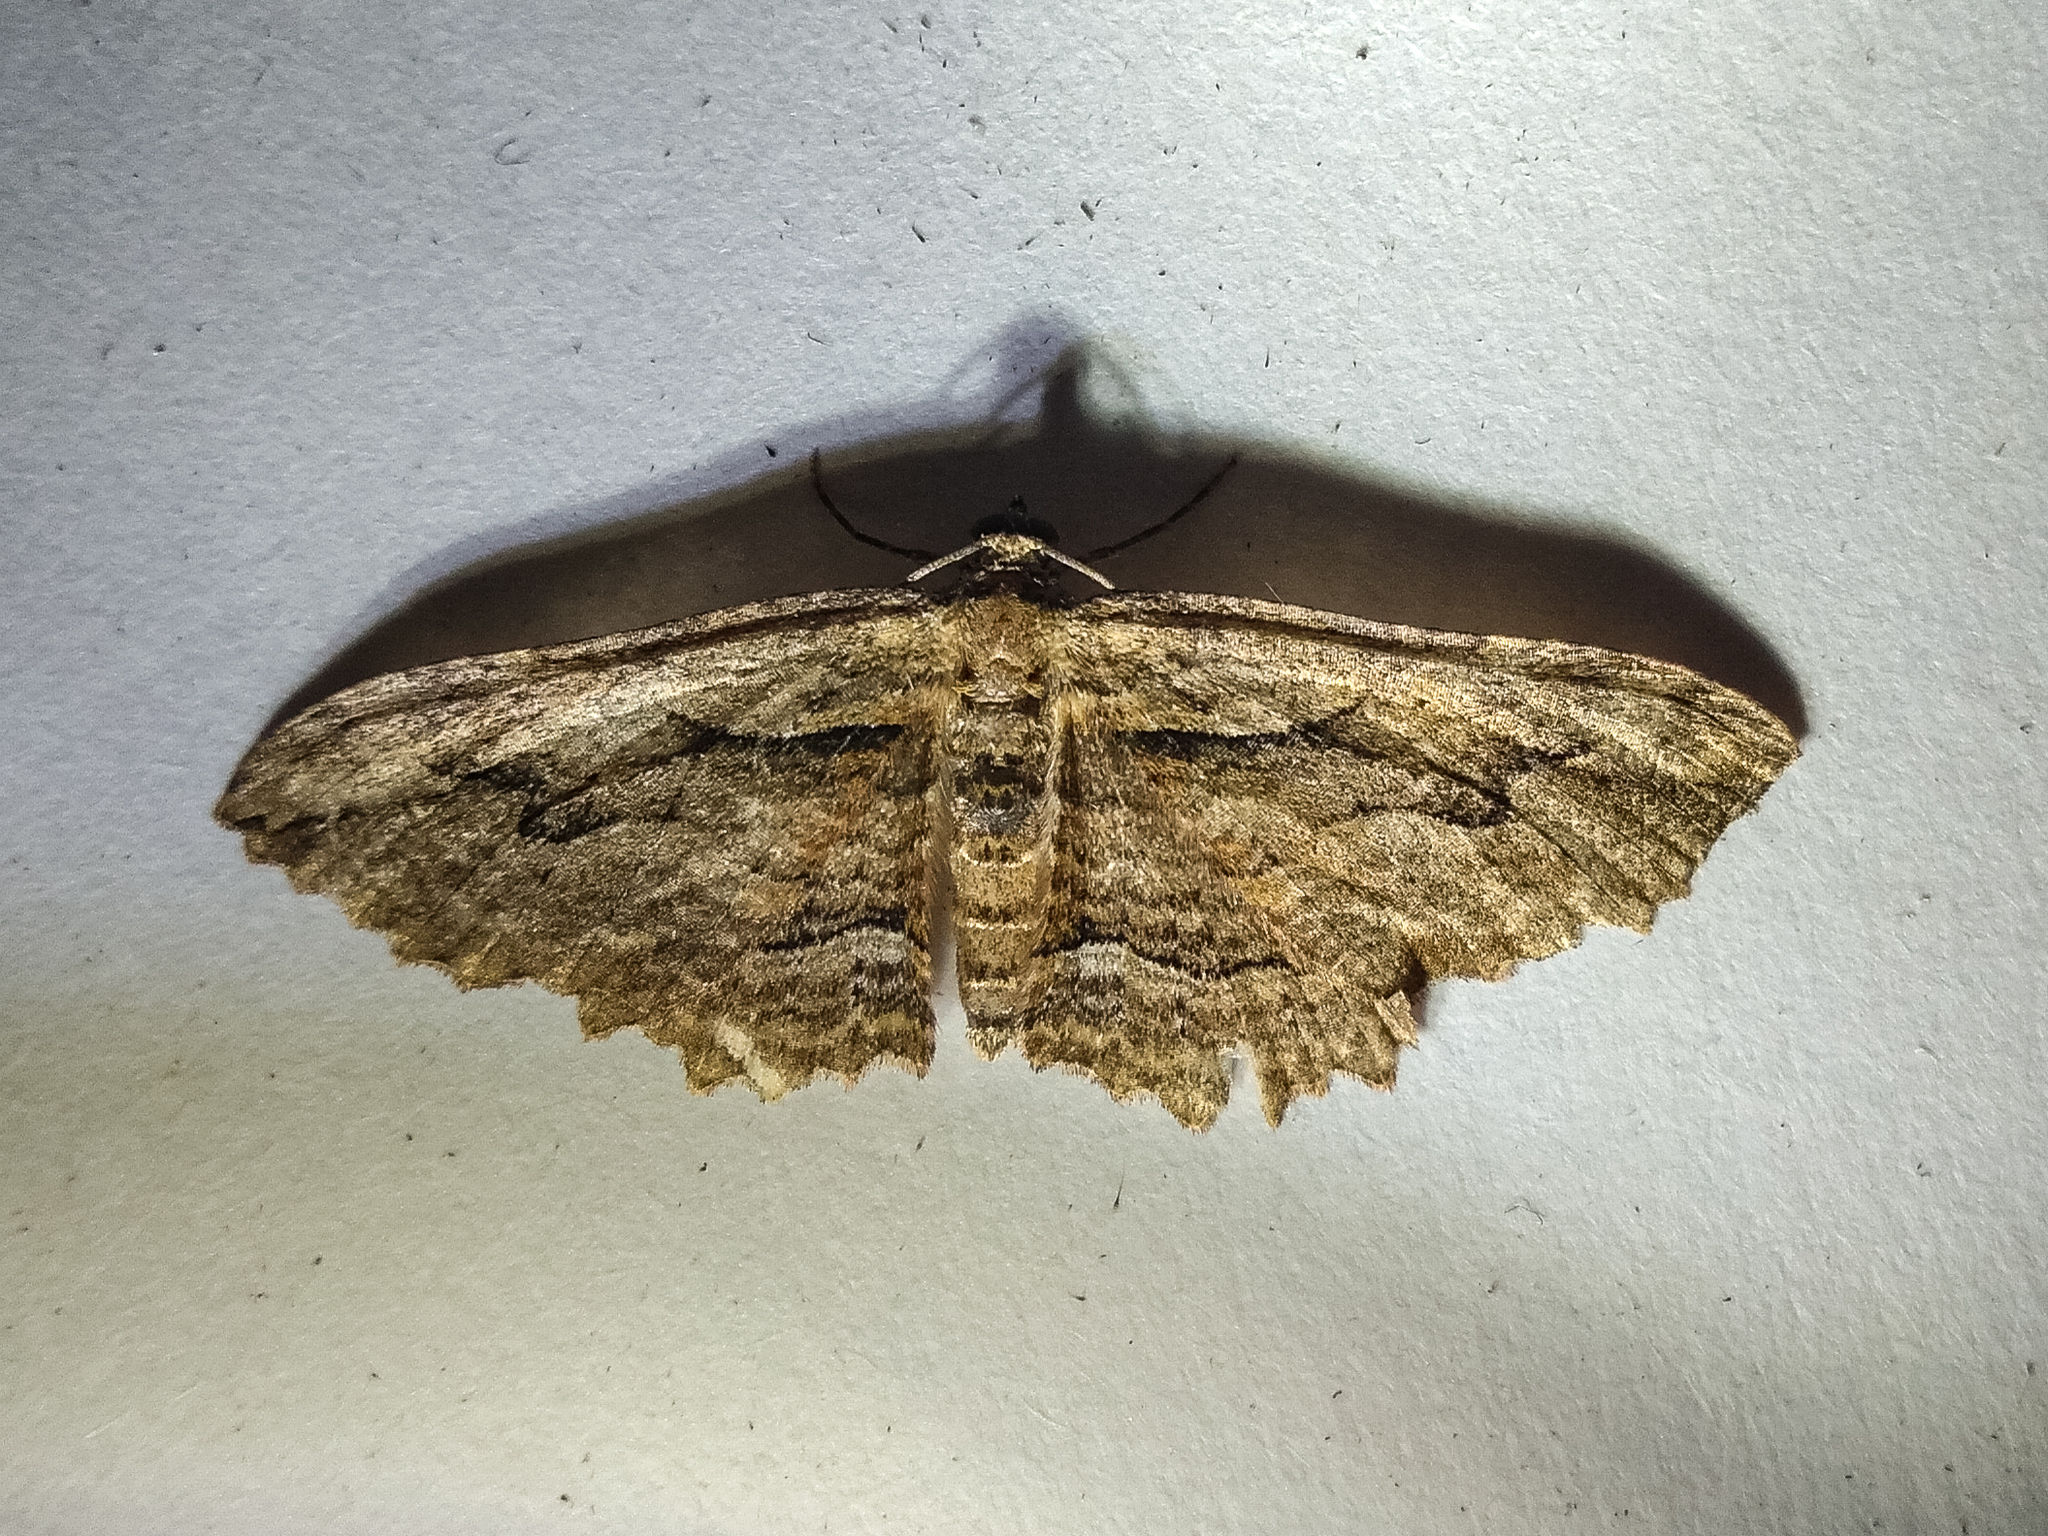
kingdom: Animalia
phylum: Arthropoda
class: Insecta
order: Lepidoptera
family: Geometridae
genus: Austrocidaria
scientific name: Austrocidaria bipartita
